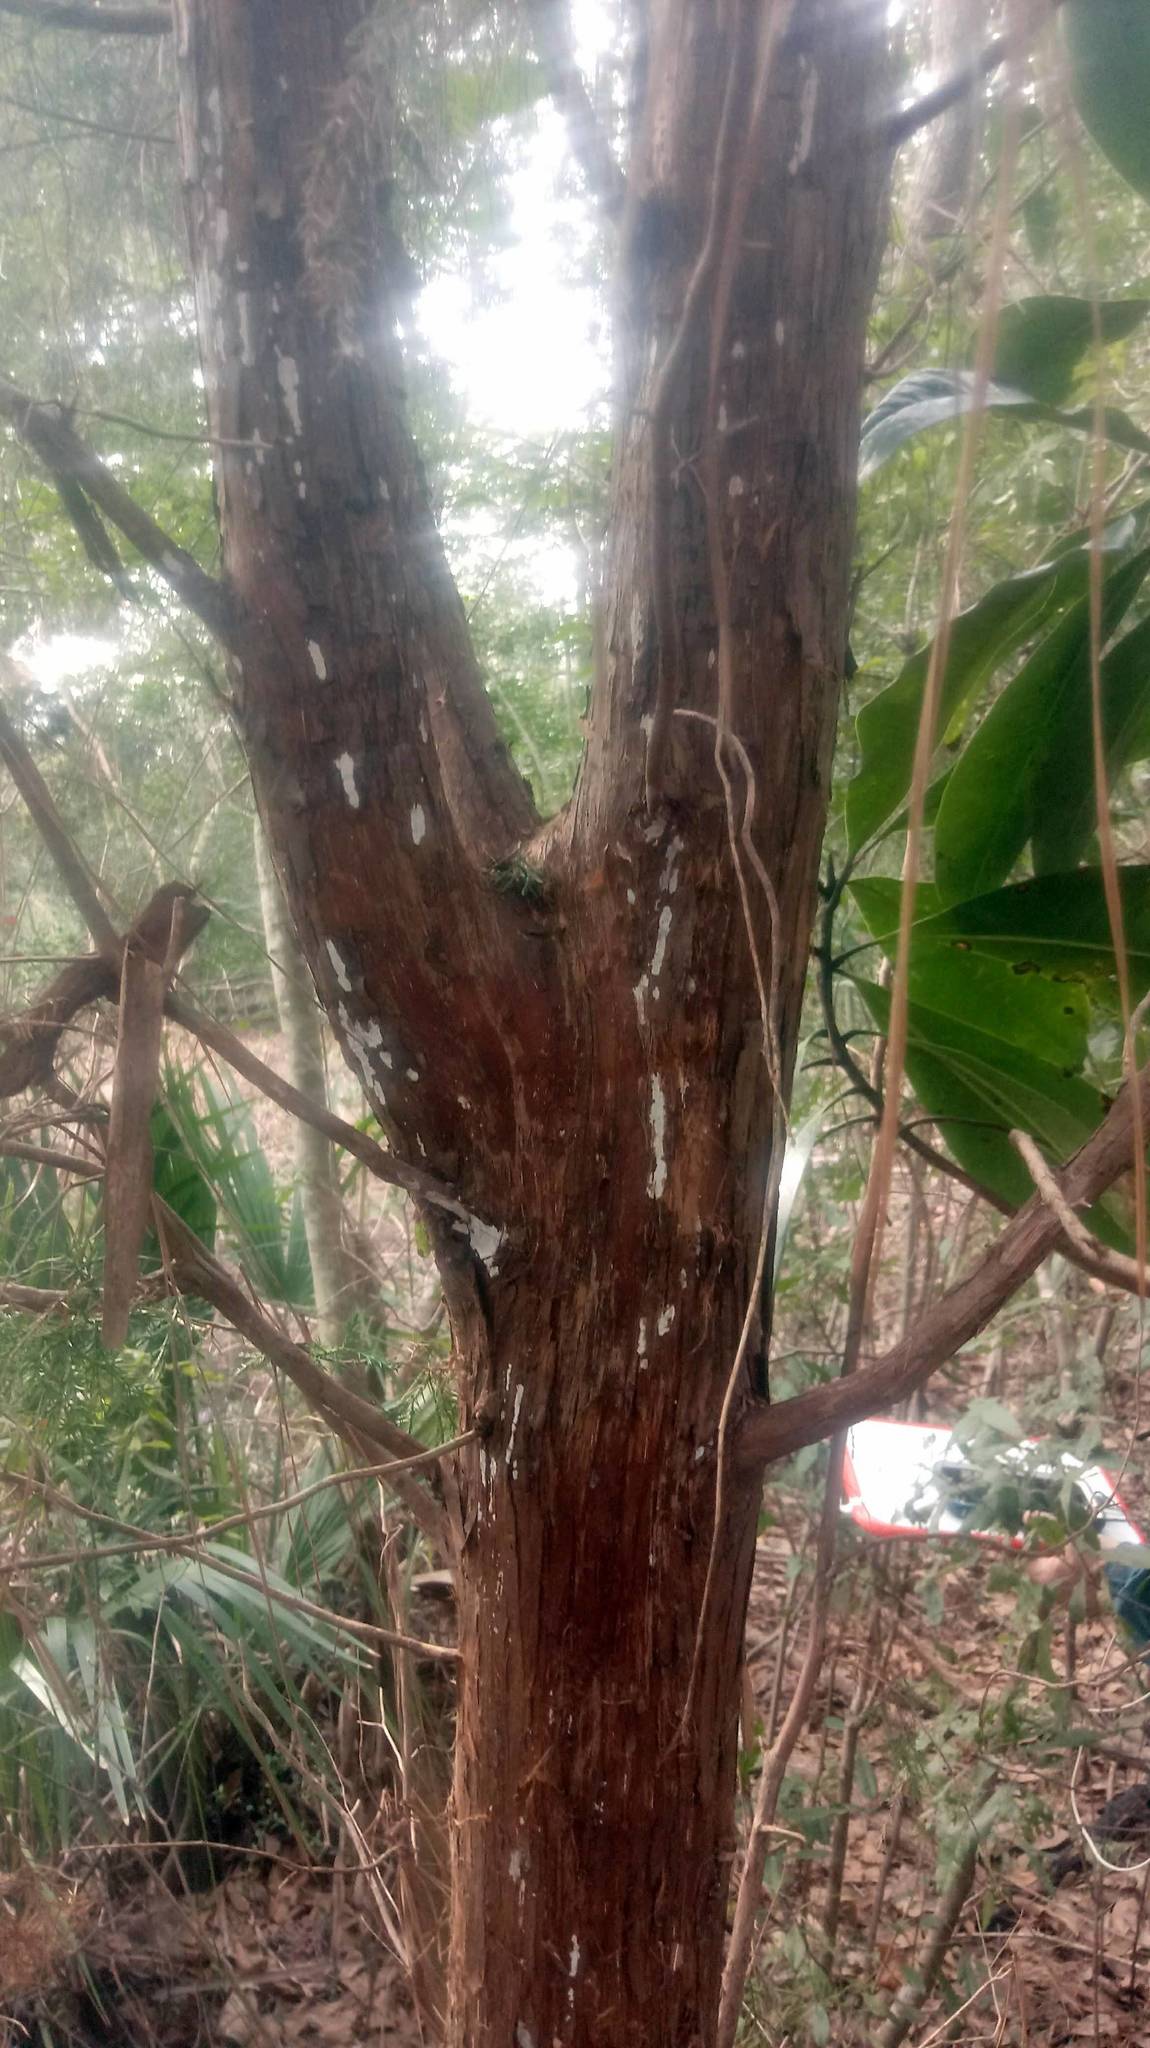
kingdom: Plantae
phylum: Tracheophyta
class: Pinopsida
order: Pinales
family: Cupressaceae
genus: Juniperus
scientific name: Juniperus virginiana
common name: Red juniper
